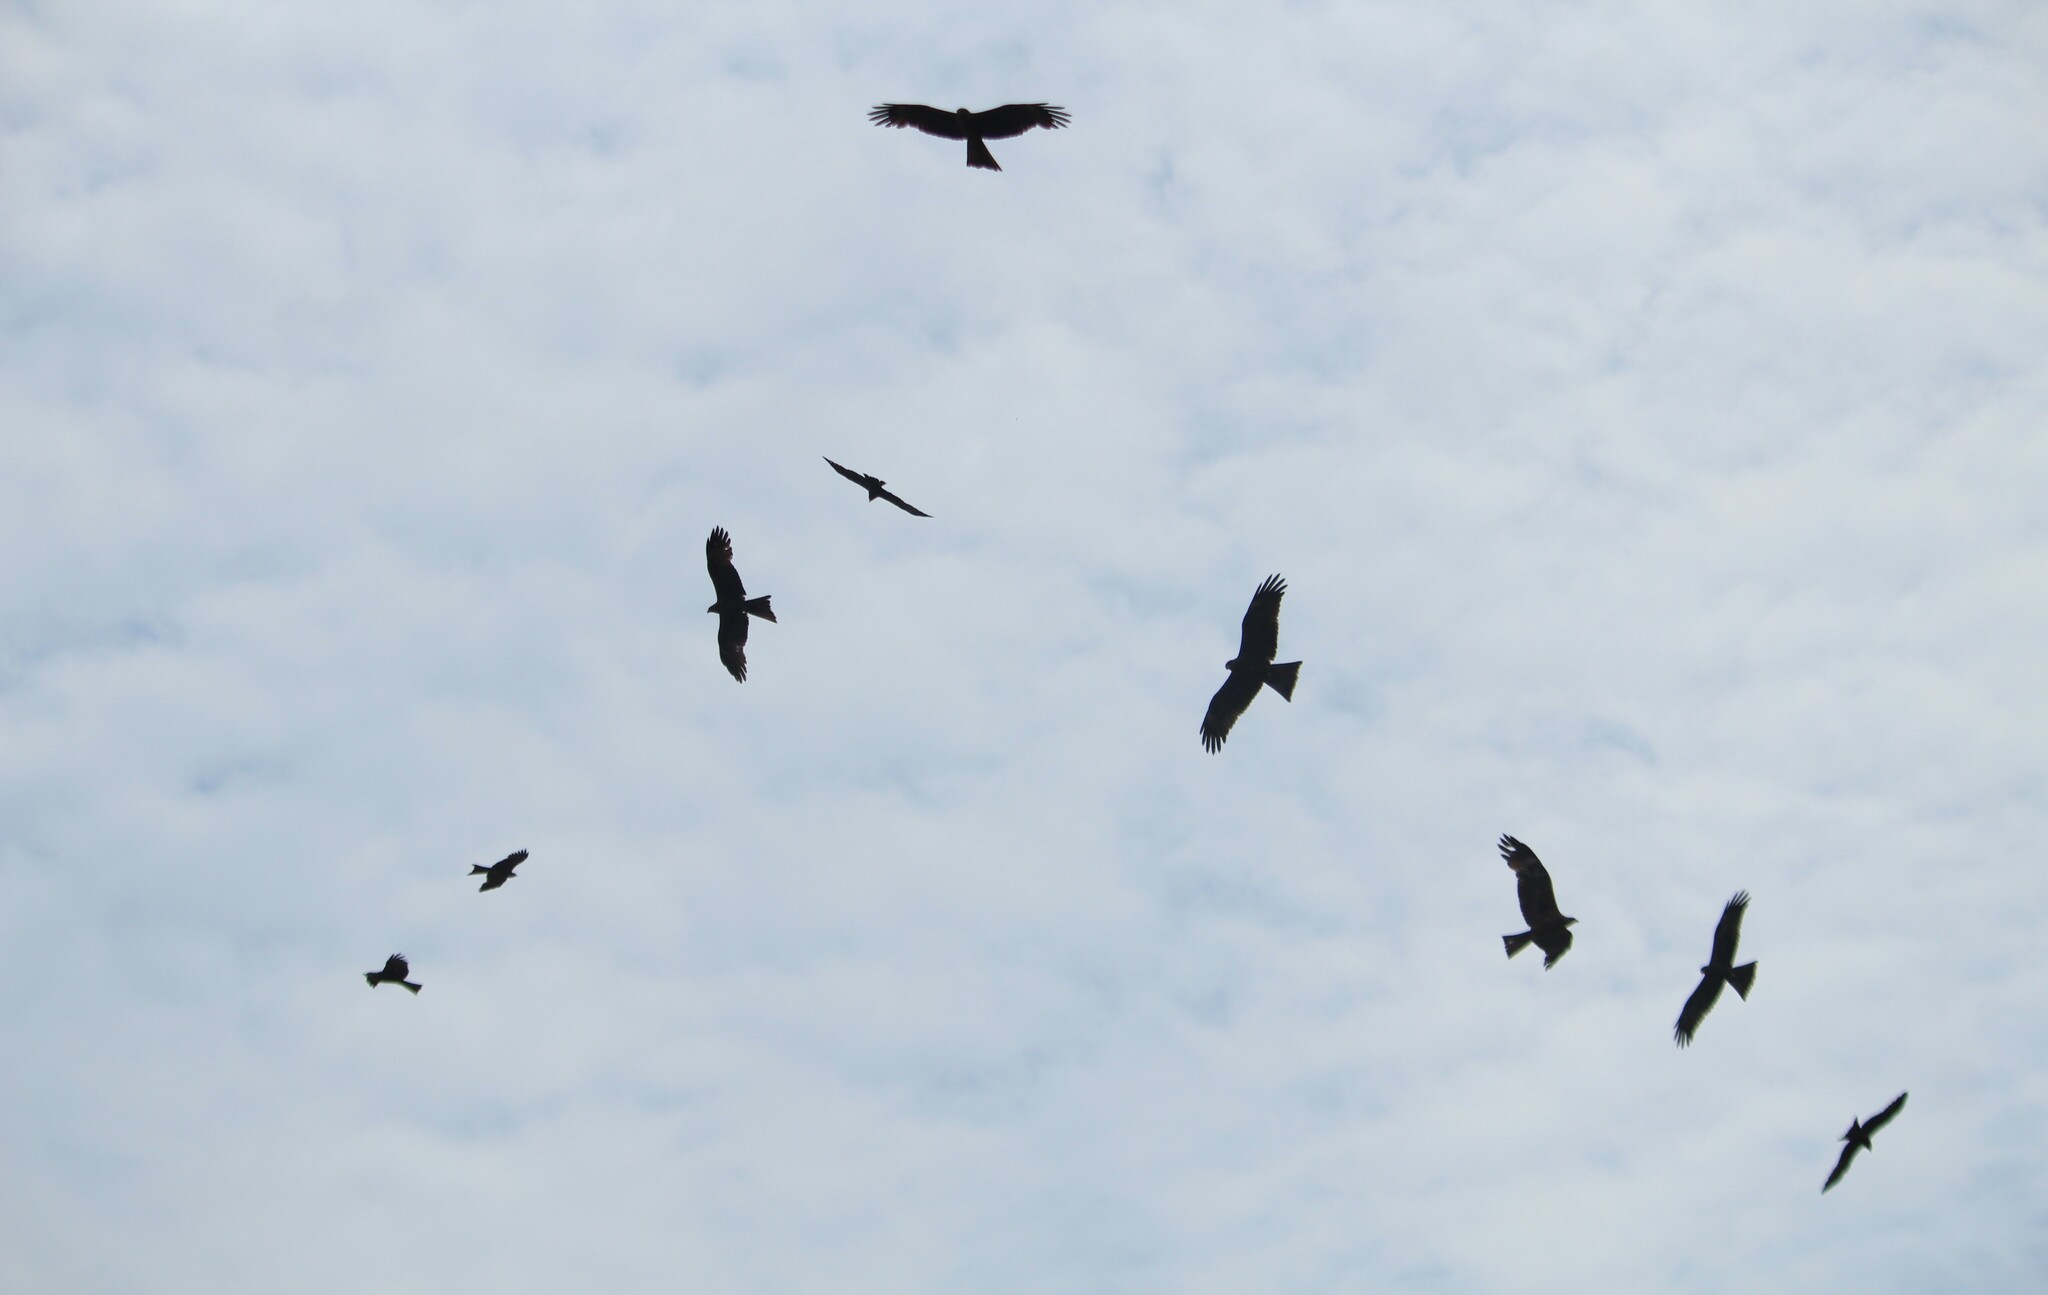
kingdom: Animalia
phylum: Chordata
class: Aves
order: Accipitriformes
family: Accipitridae
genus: Milvus
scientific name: Milvus migrans
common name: Black kite
